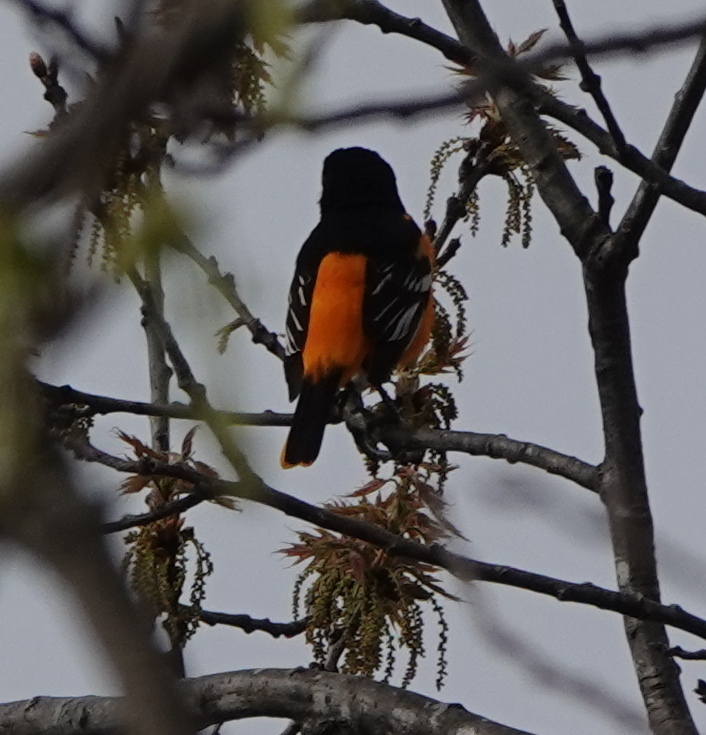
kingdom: Animalia
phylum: Chordata
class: Aves
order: Passeriformes
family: Icteridae
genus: Icterus
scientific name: Icterus galbula
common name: Baltimore oriole
